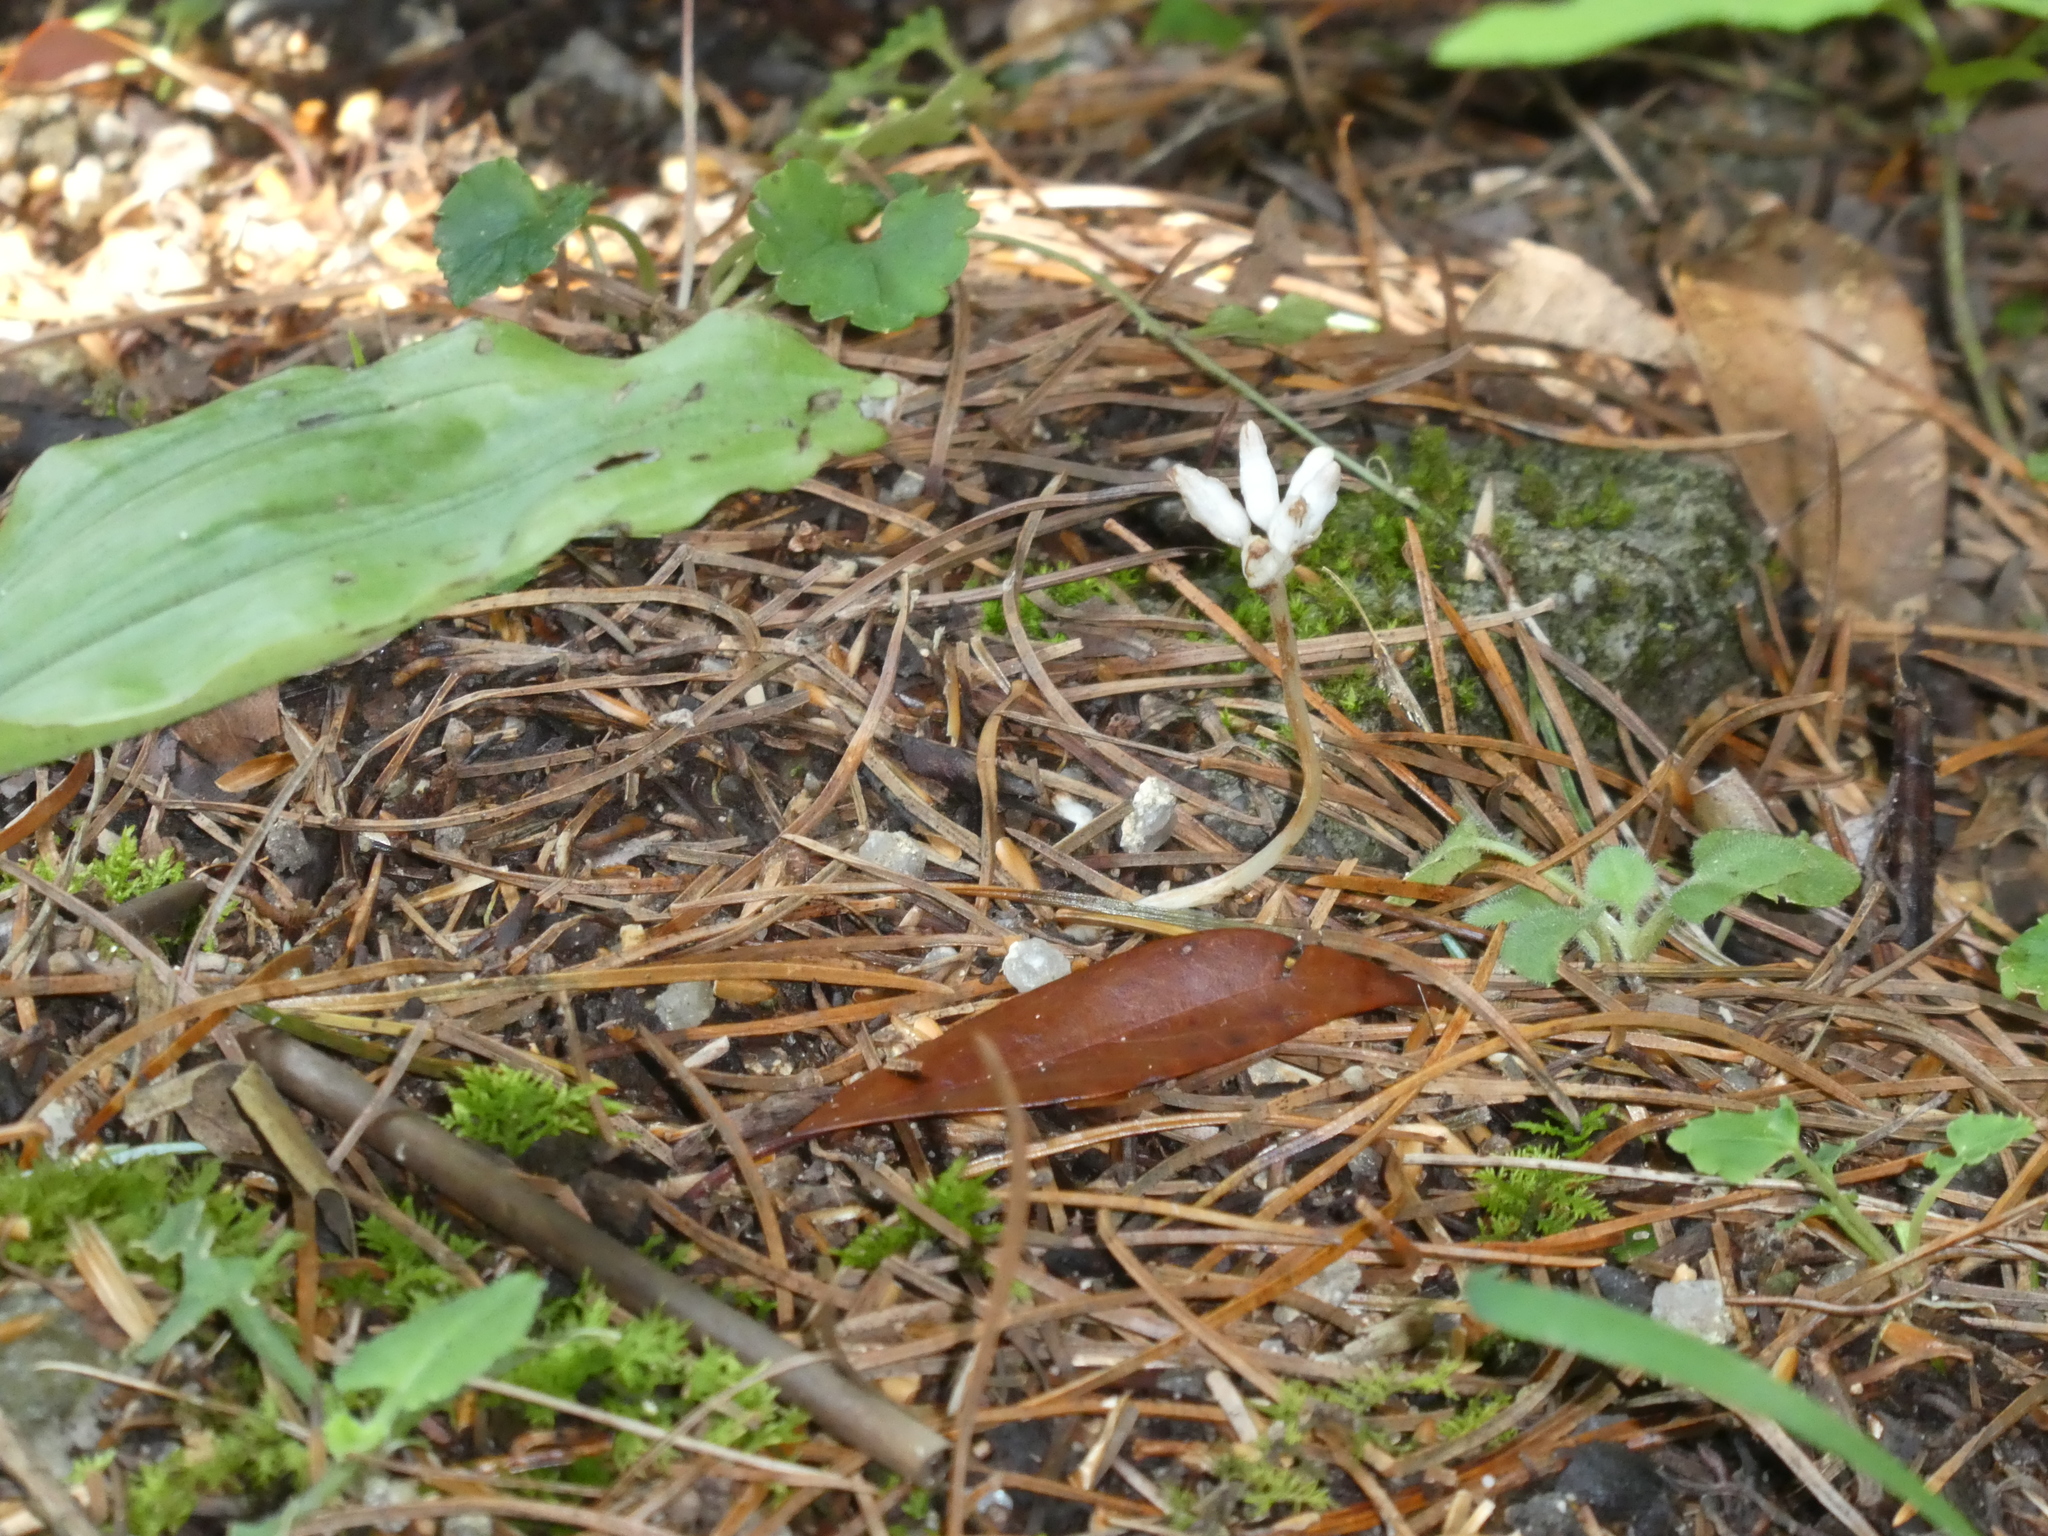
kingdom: Plantae
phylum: Tracheophyta
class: Liliopsida
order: Dioscoreales
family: Burmanniaceae
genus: Campylosiphon
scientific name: Campylosiphon
